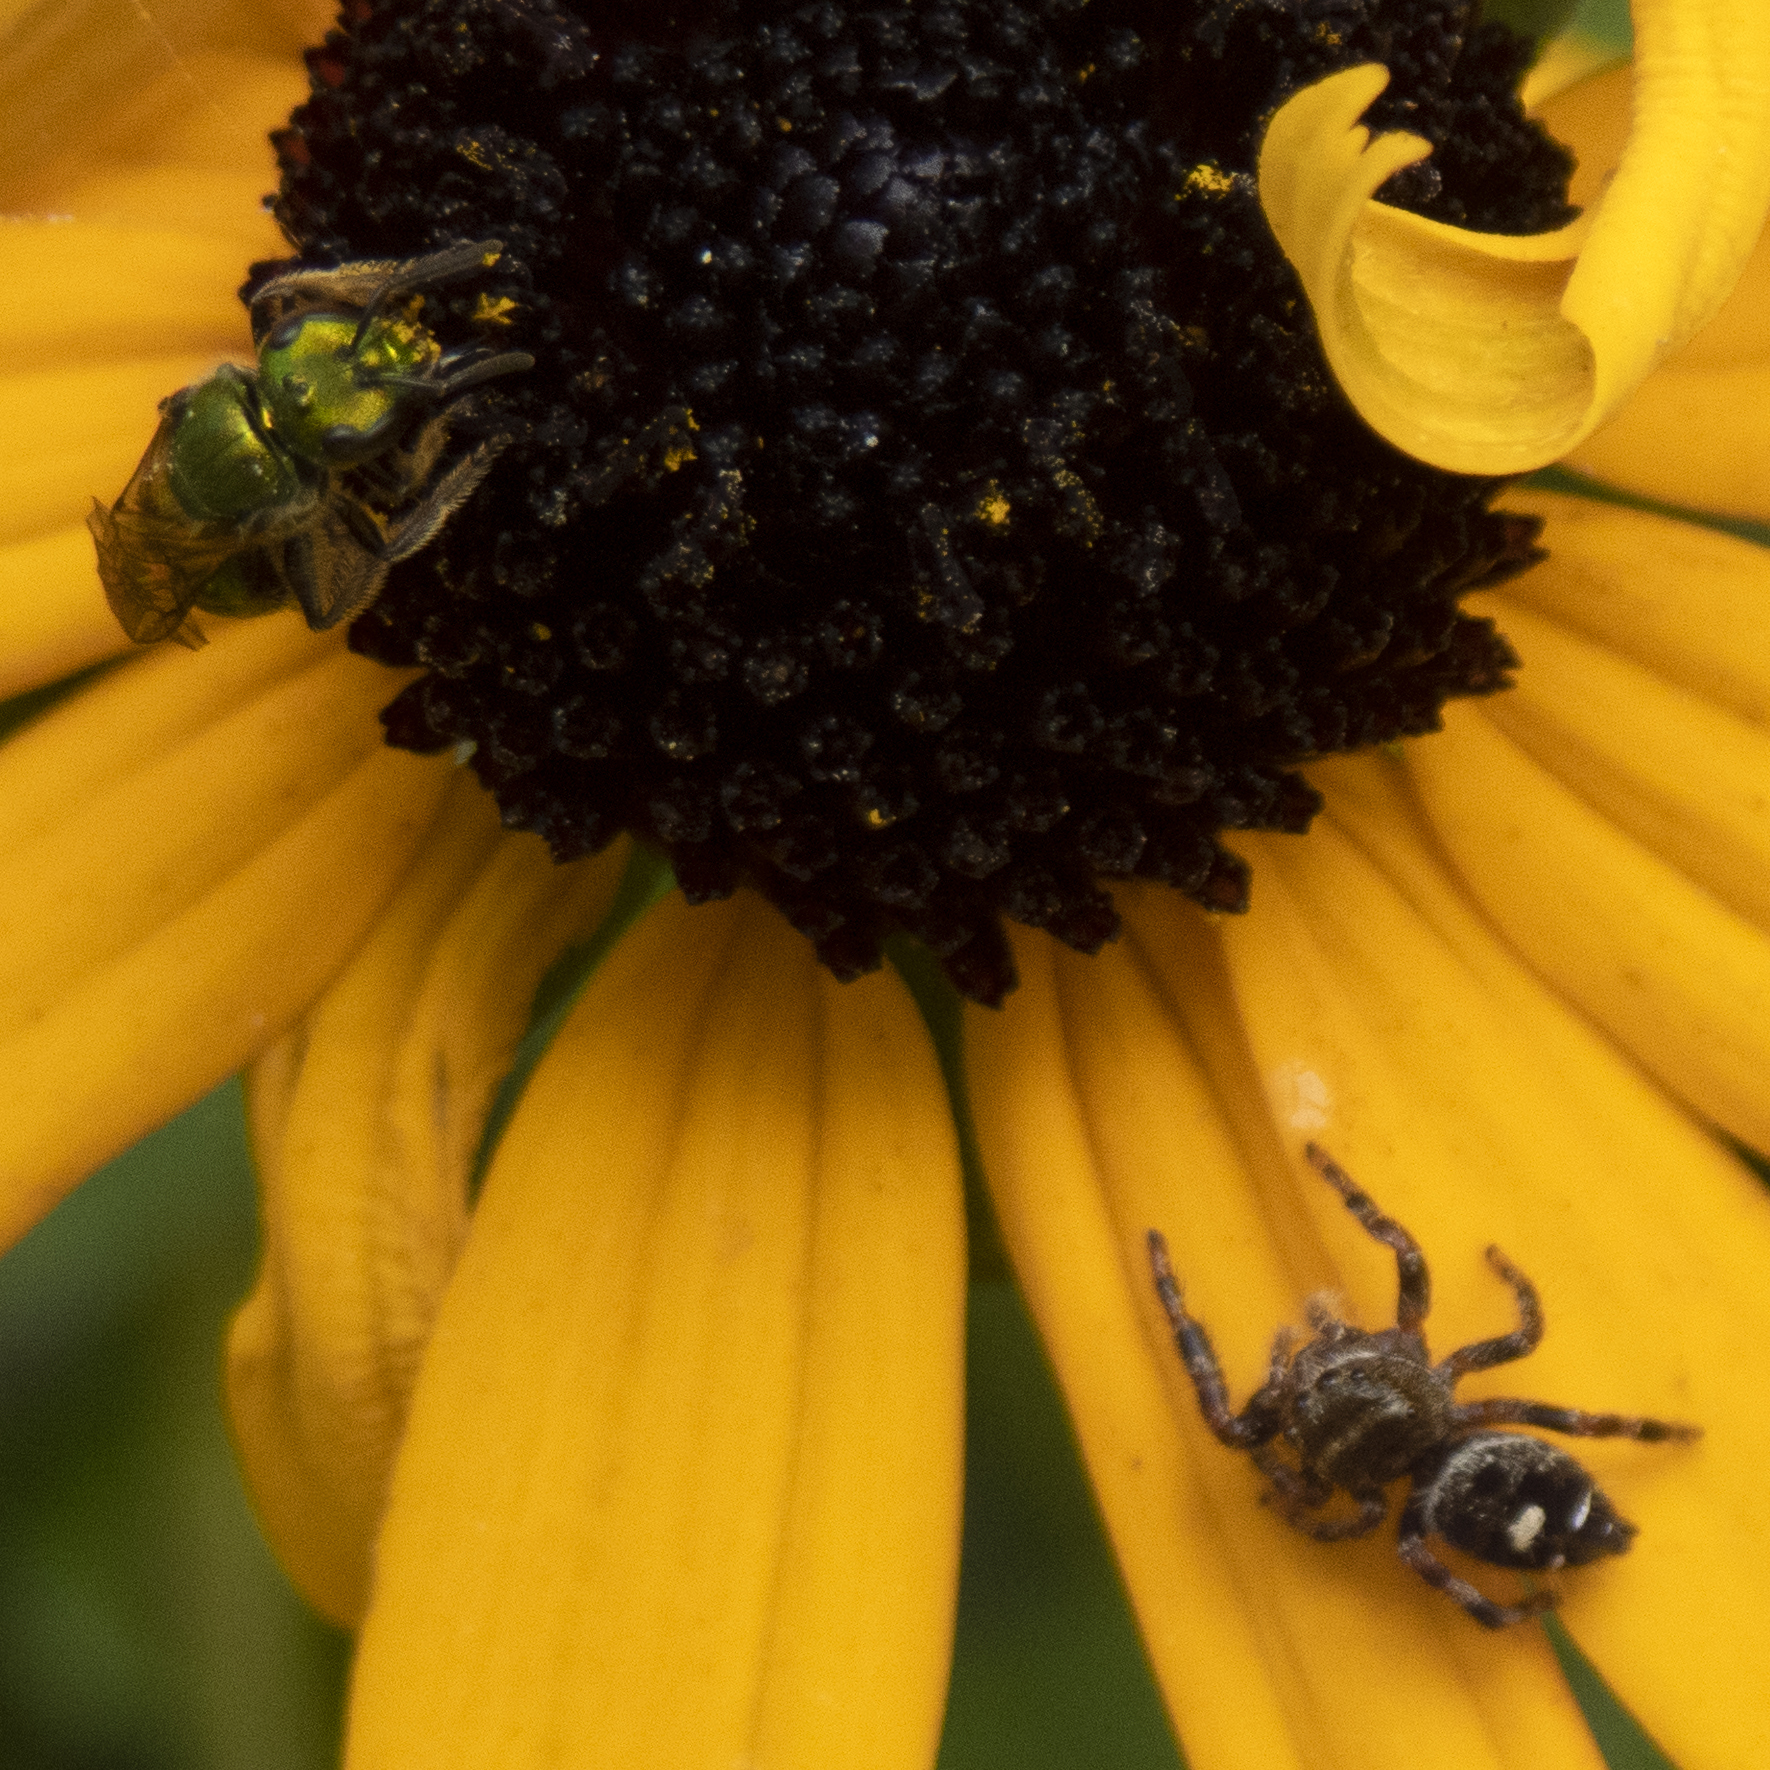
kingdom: Animalia
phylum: Arthropoda
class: Arachnida
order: Araneae
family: Salticidae
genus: Phidippus
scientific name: Phidippus audax
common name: Bold jumper
